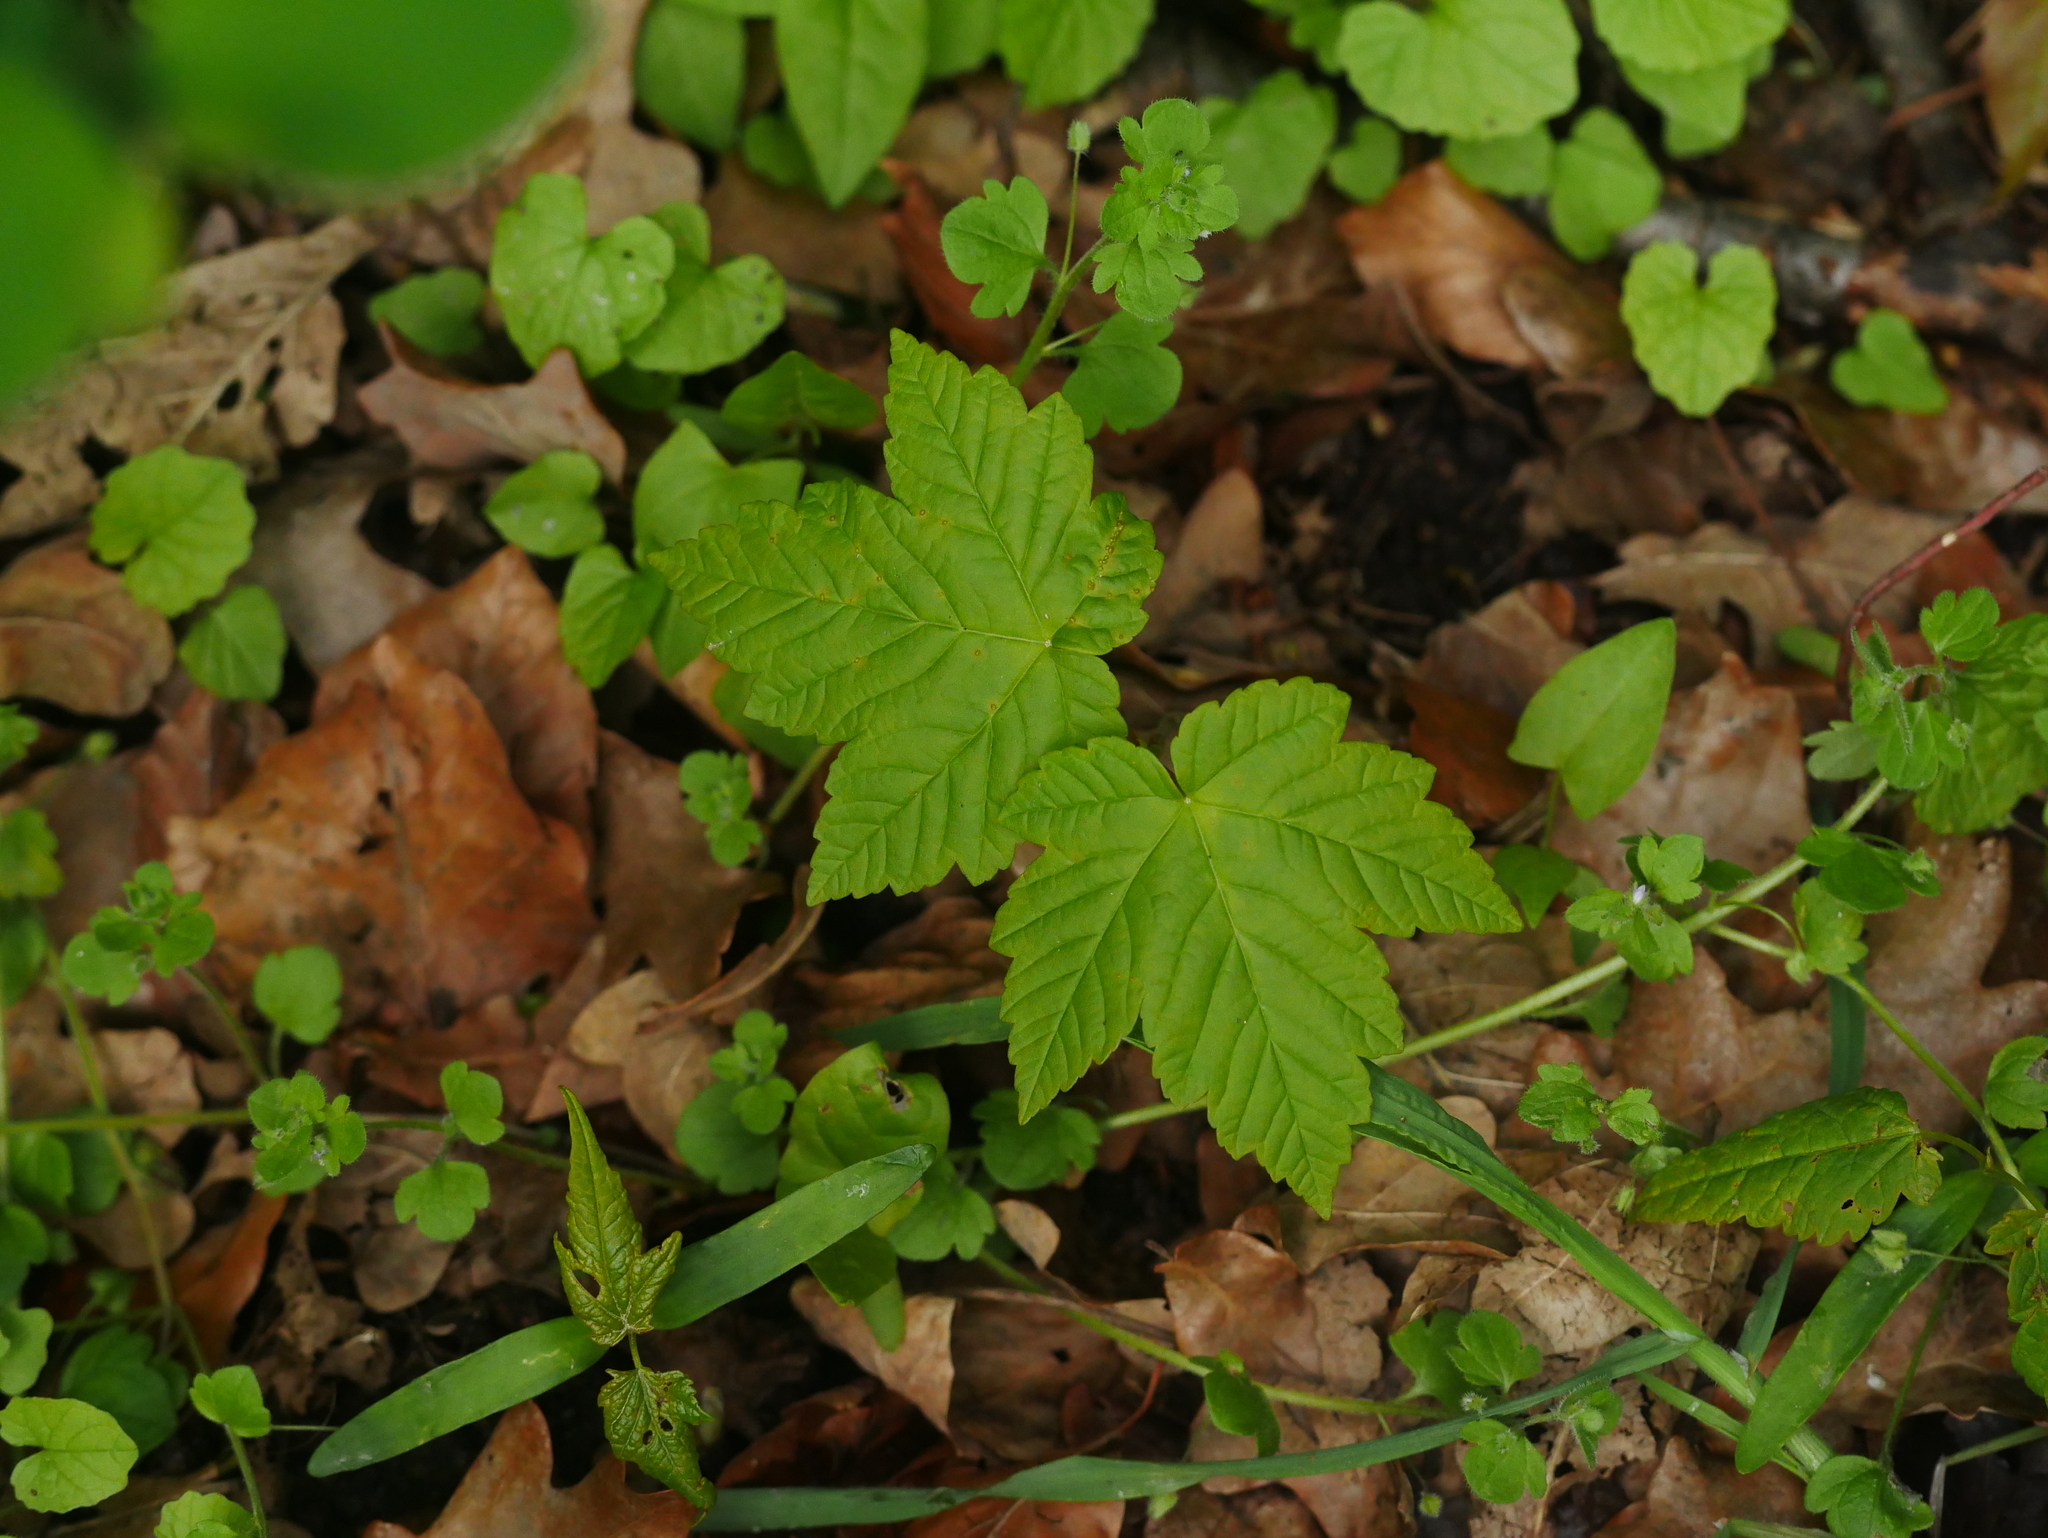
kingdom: Plantae
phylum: Tracheophyta
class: Magnoliopsida
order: Sapindales
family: Sapindaceae
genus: Acer
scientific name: Acer pseudoplatanus
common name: Sycamore
